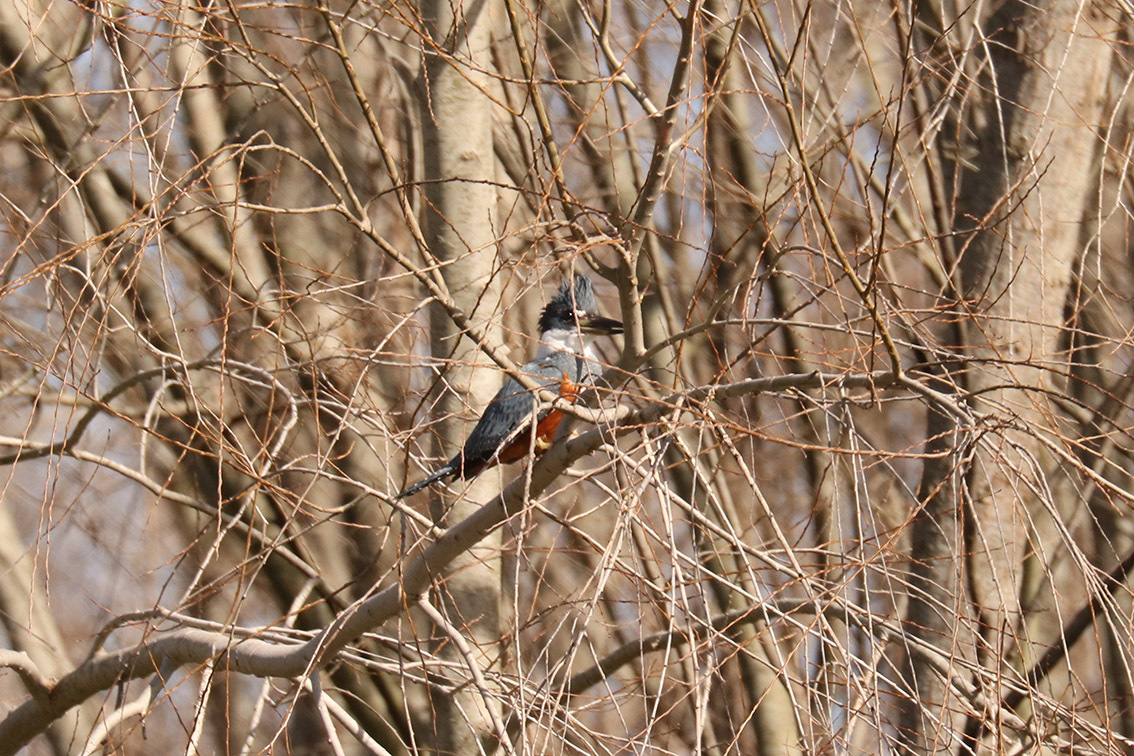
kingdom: Animalia
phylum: Chordata
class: Aves
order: Coraciiformes
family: Alcedinidae
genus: Megaceryle
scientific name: Megaceryle torquata
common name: Ringed kingfisher
